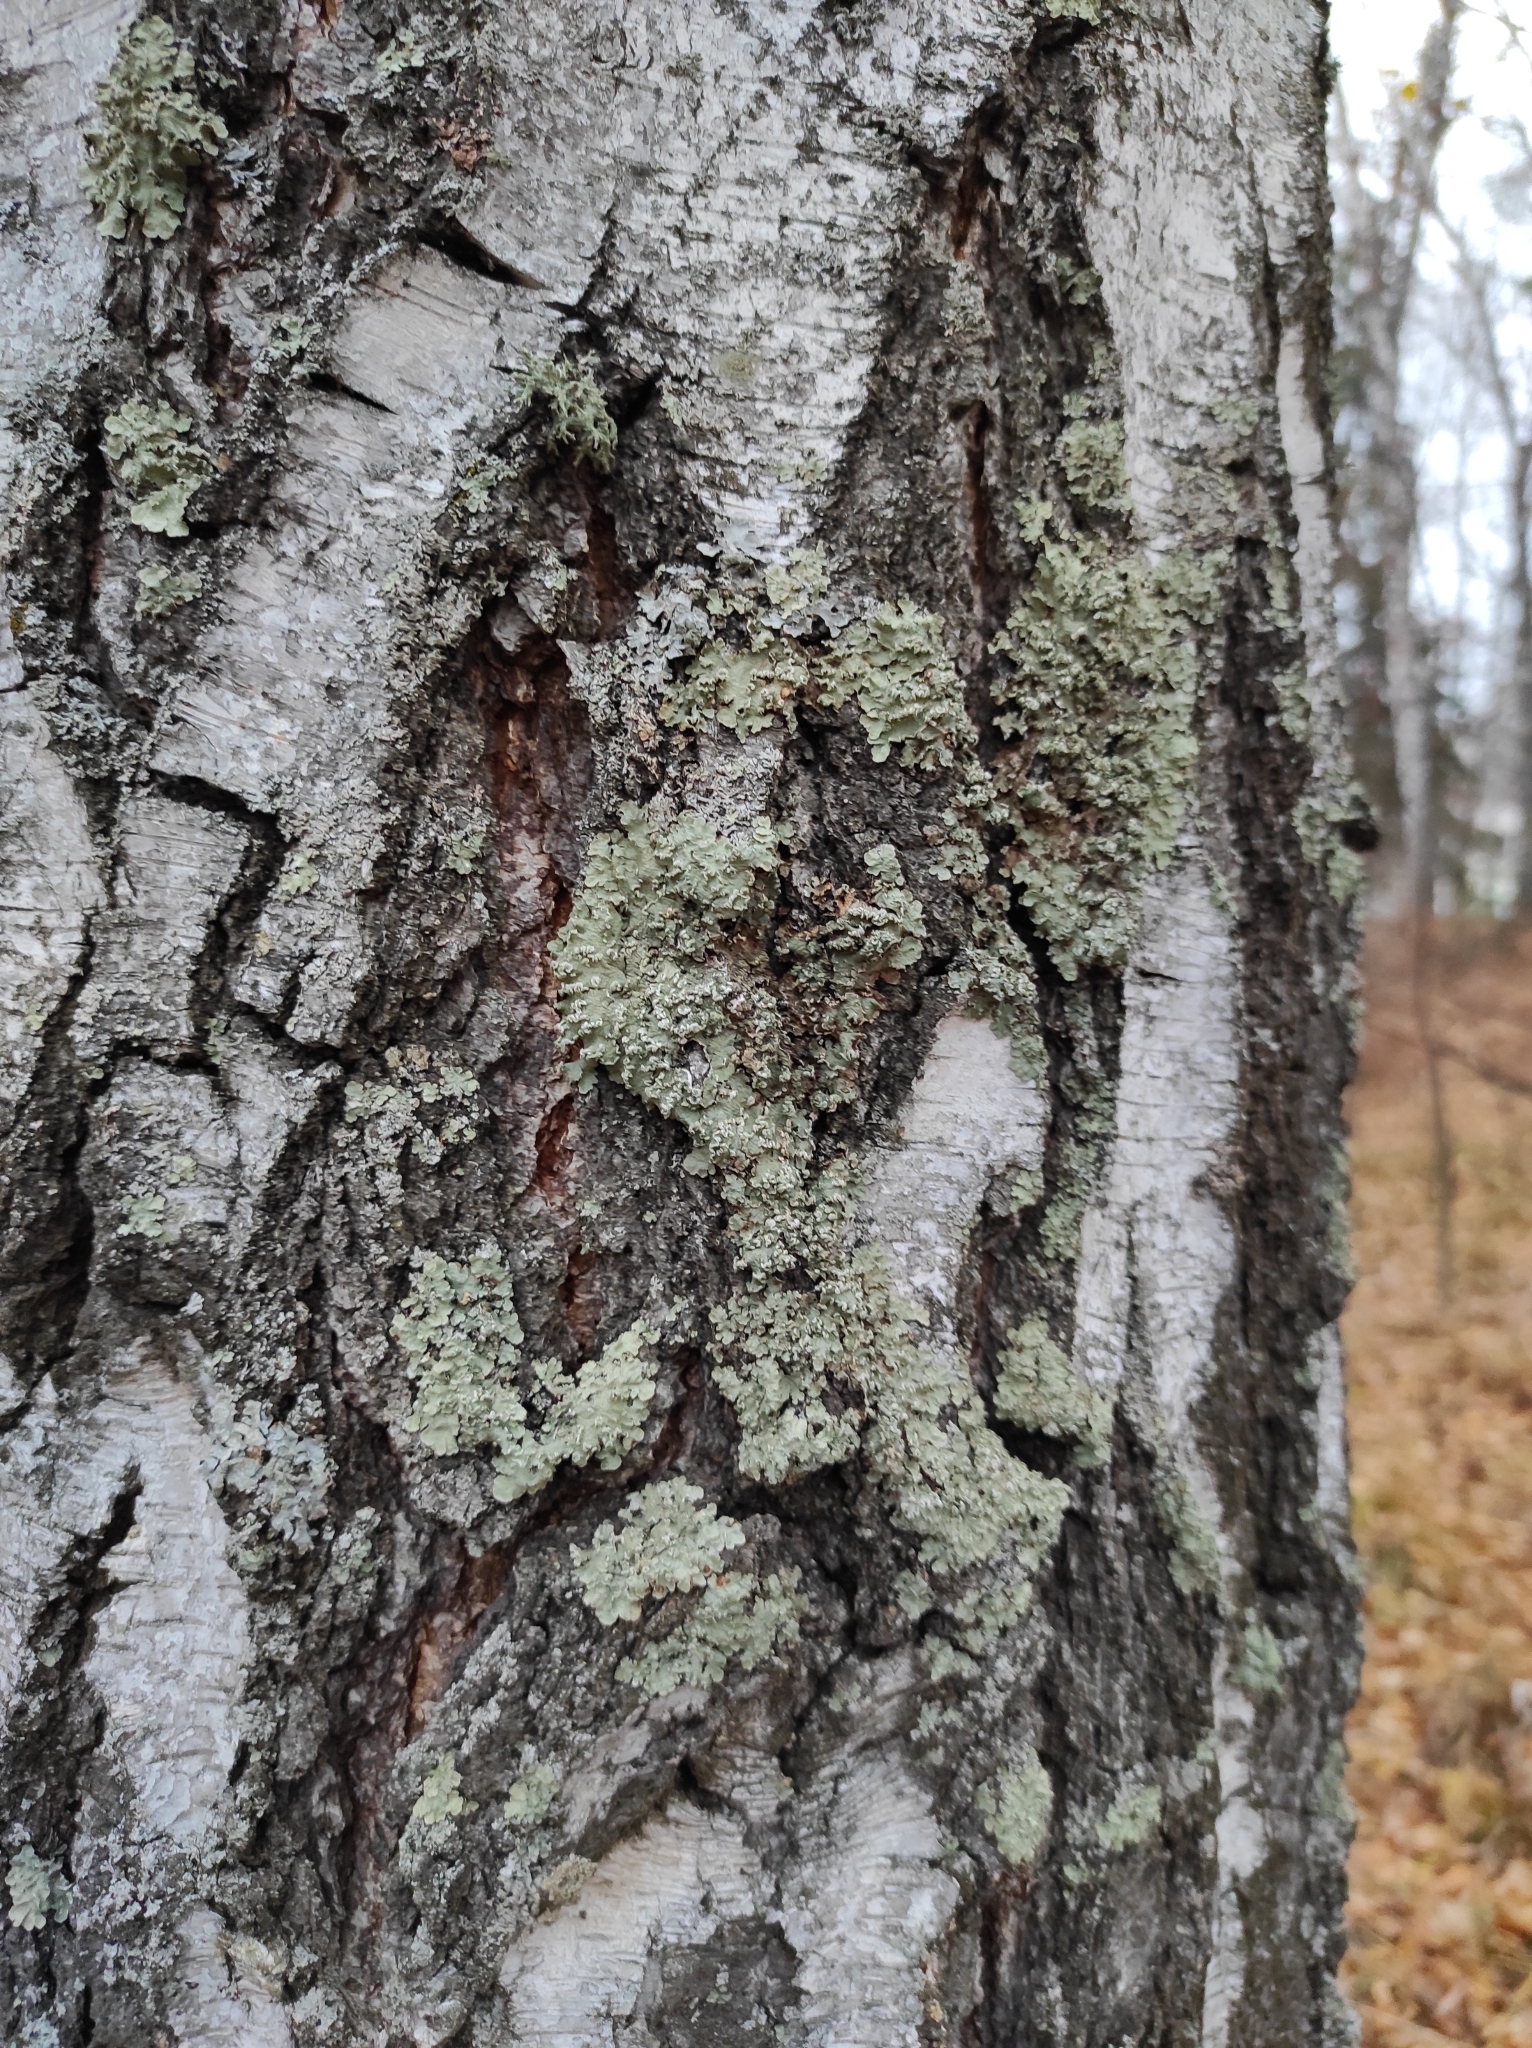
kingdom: Plantae
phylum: Tracheophyta
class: Magnoliopsida
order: Fagales
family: Betulaceae
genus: Betula
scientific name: Betula pendula
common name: Silver birch
